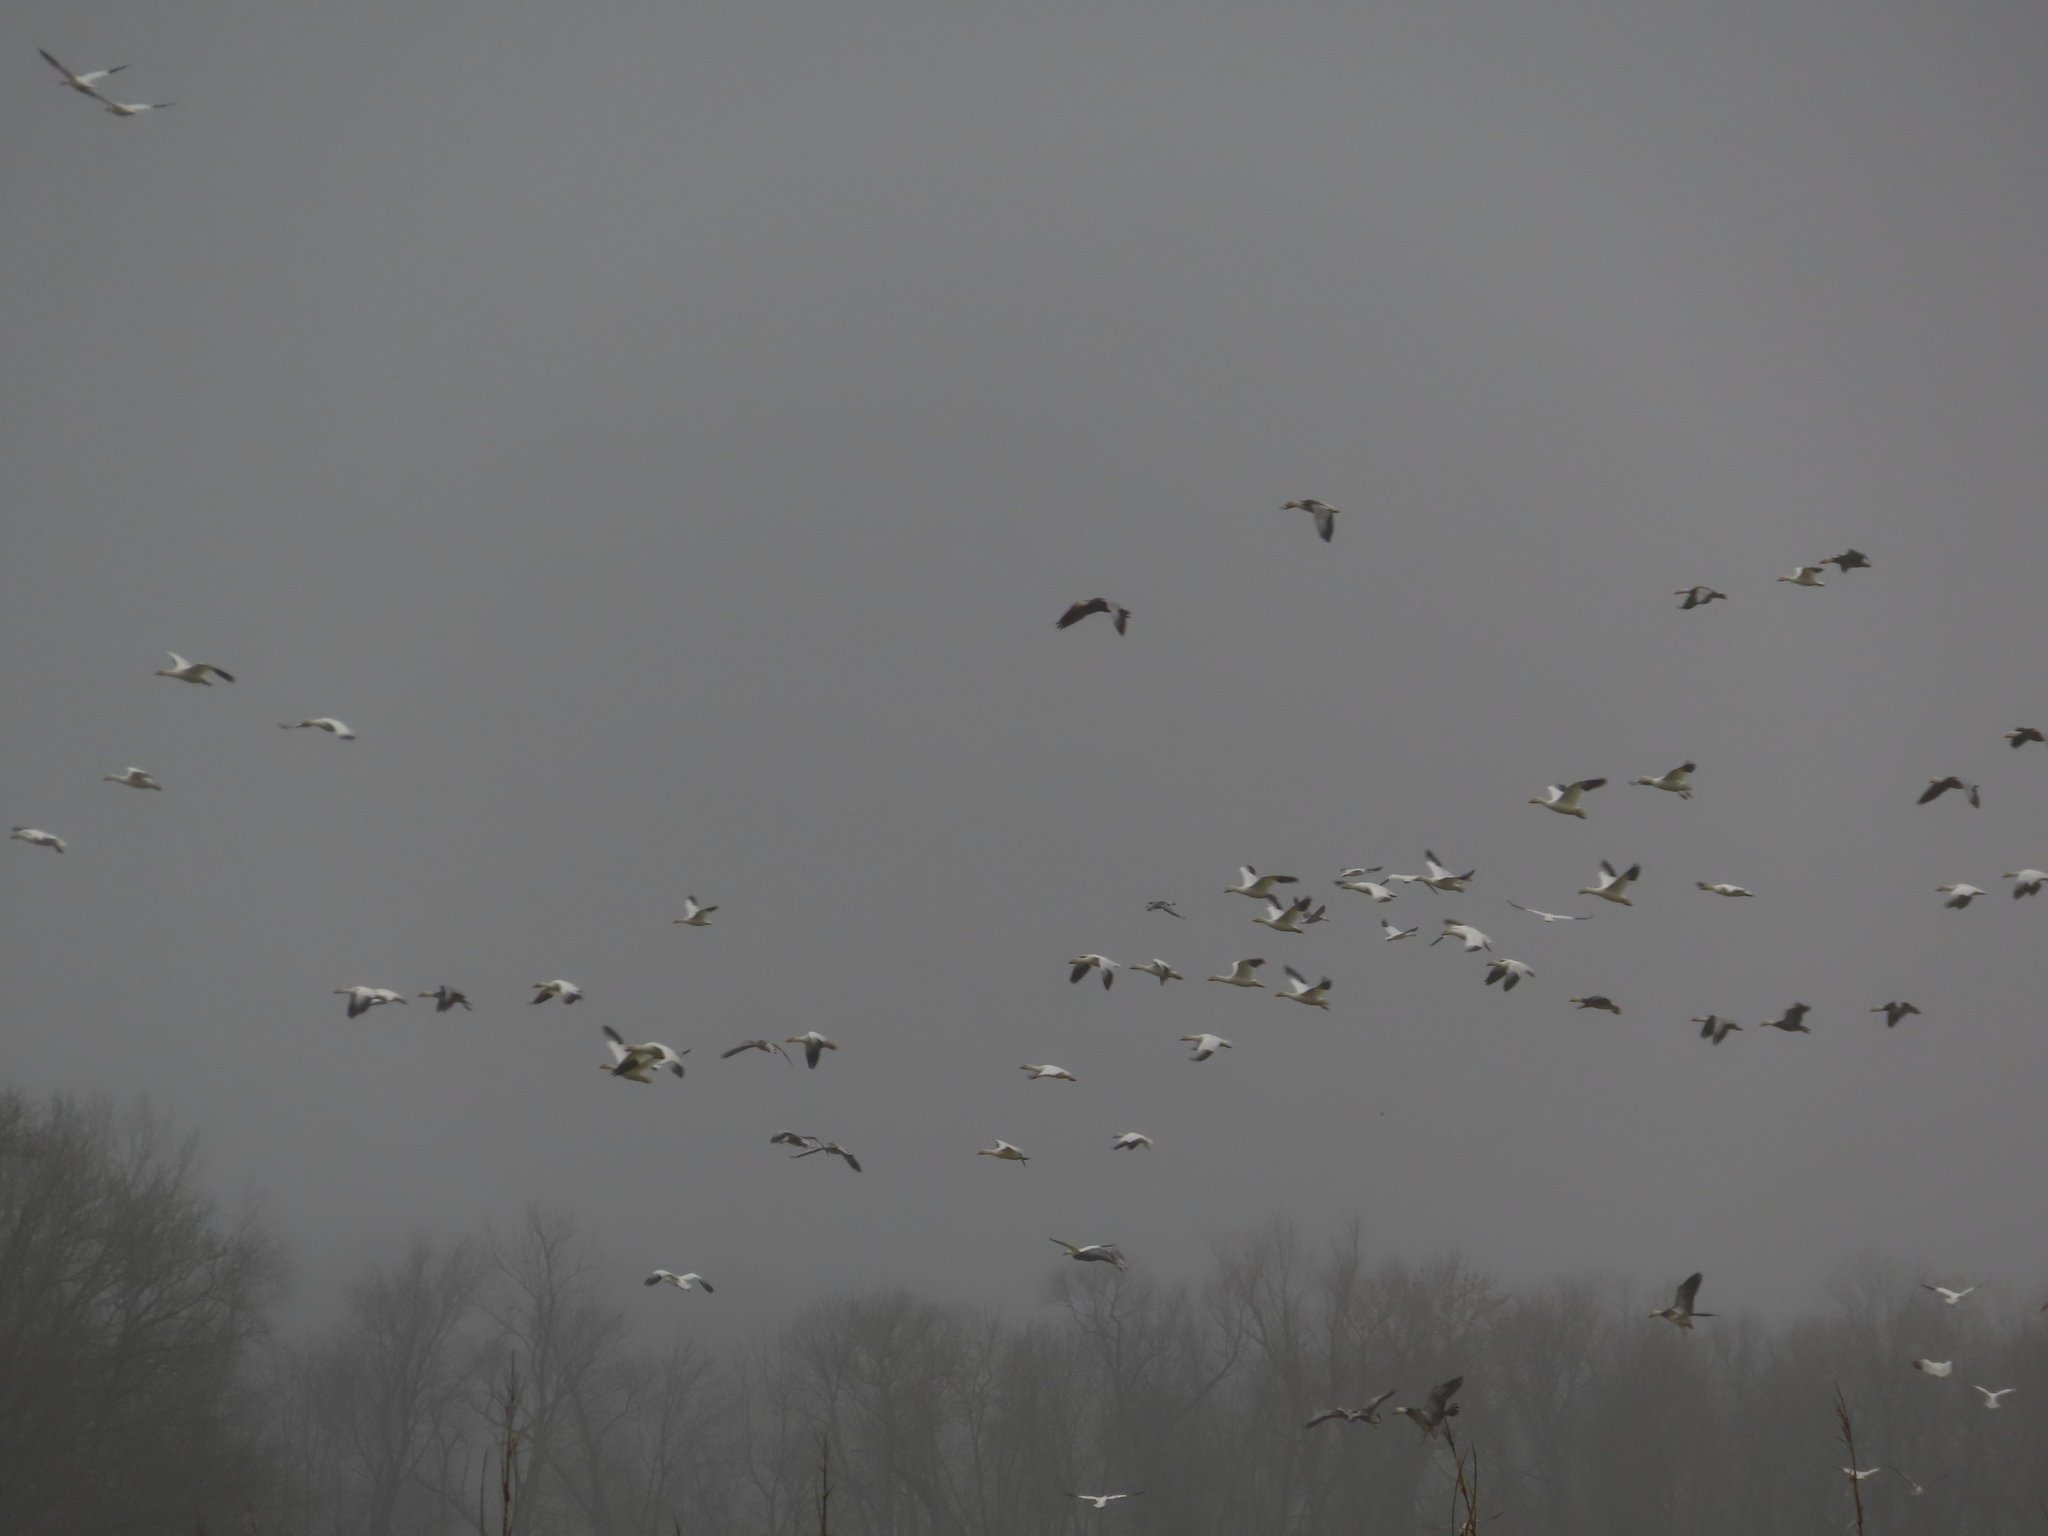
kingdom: Animalia
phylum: Chordata
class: Aves
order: Anseriformes
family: Anatidae
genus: Anser
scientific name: Anser caerulescens
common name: Snow goose
